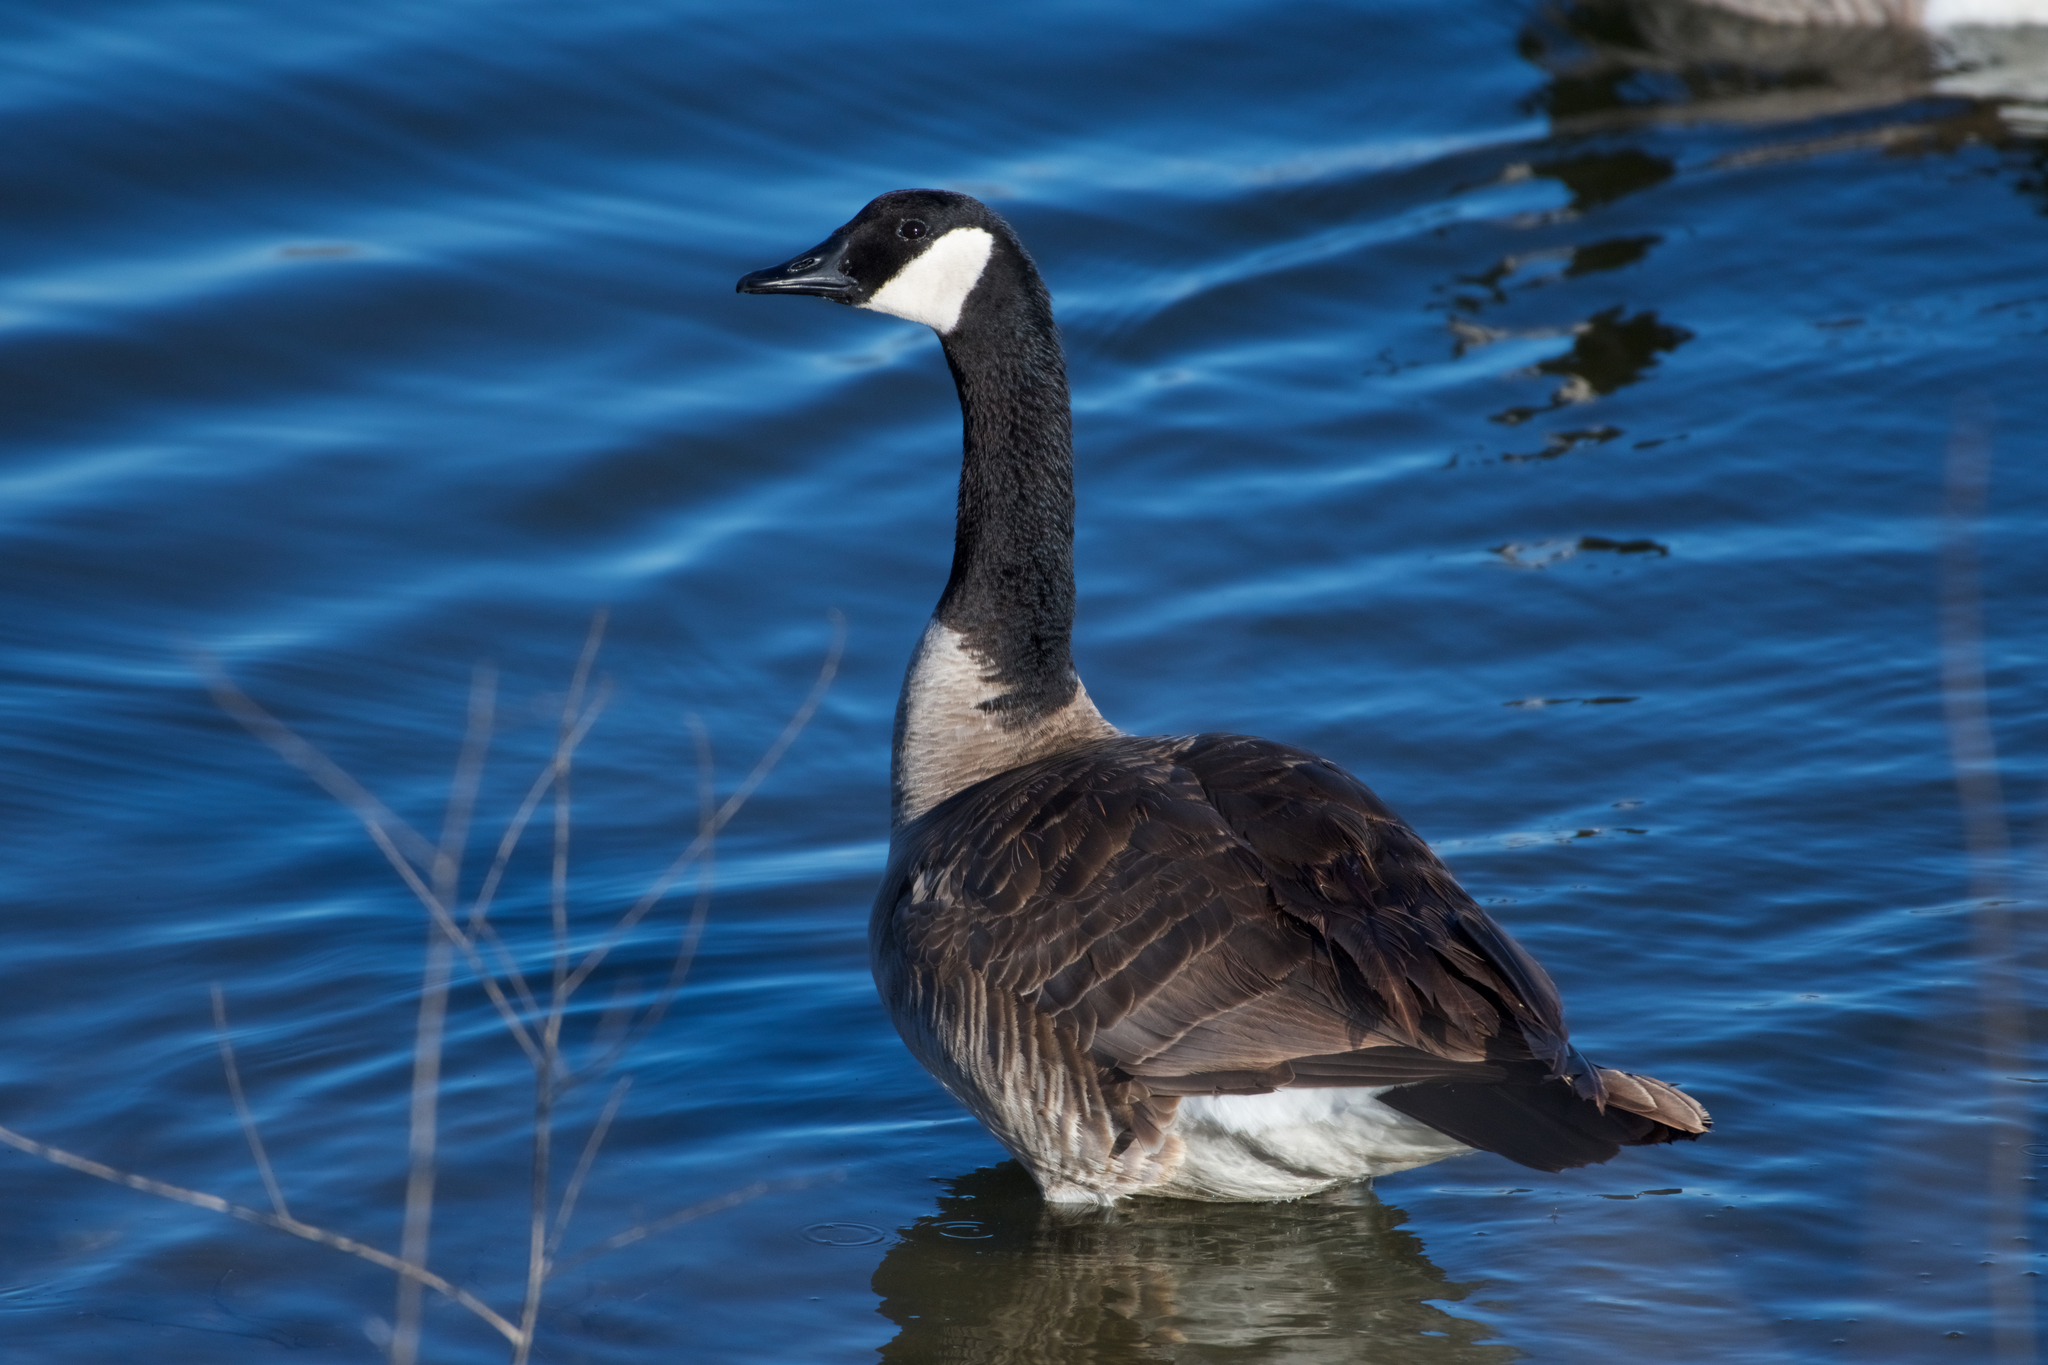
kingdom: Animalia
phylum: Chordata
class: Aves
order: Anseriformes
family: Anatidae
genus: Branta
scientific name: Branta canadensis
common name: Canada goose
